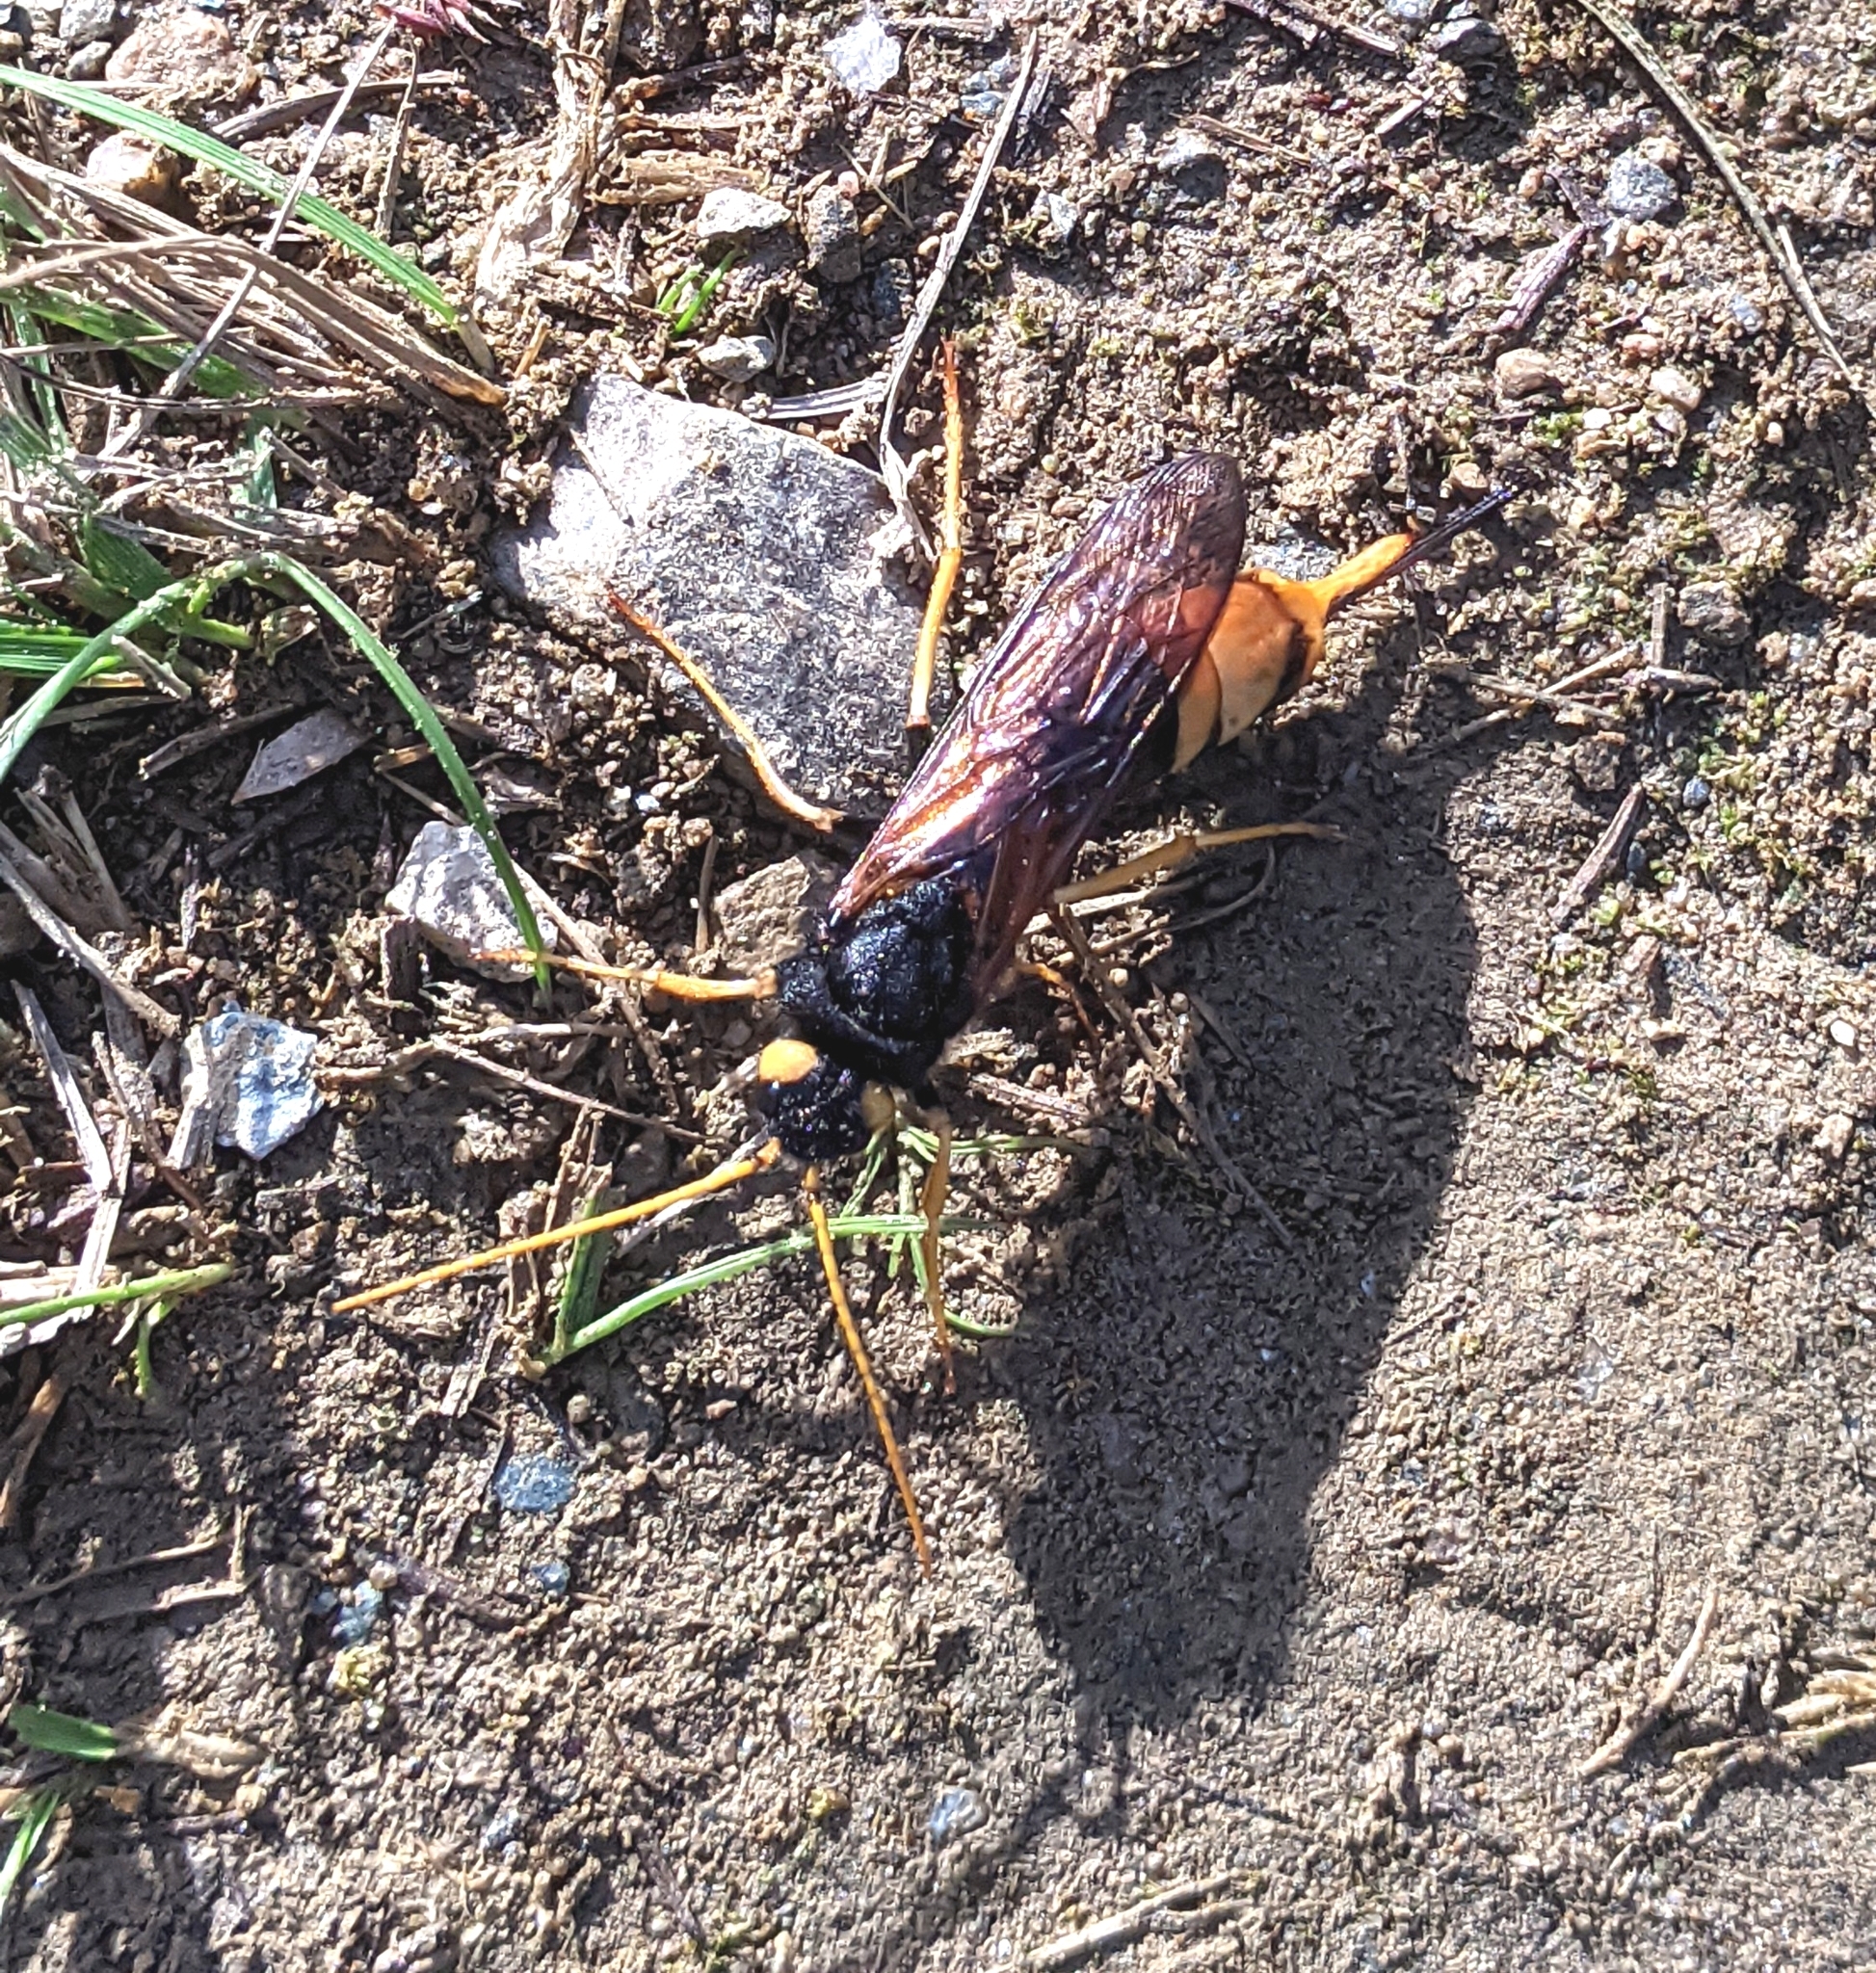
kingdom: Animalia
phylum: Arthropoda
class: Insecta
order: Hymenoptera
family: Siricidae
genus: Urocerus
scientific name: Urocerus gigas
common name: Giant woodwasp
